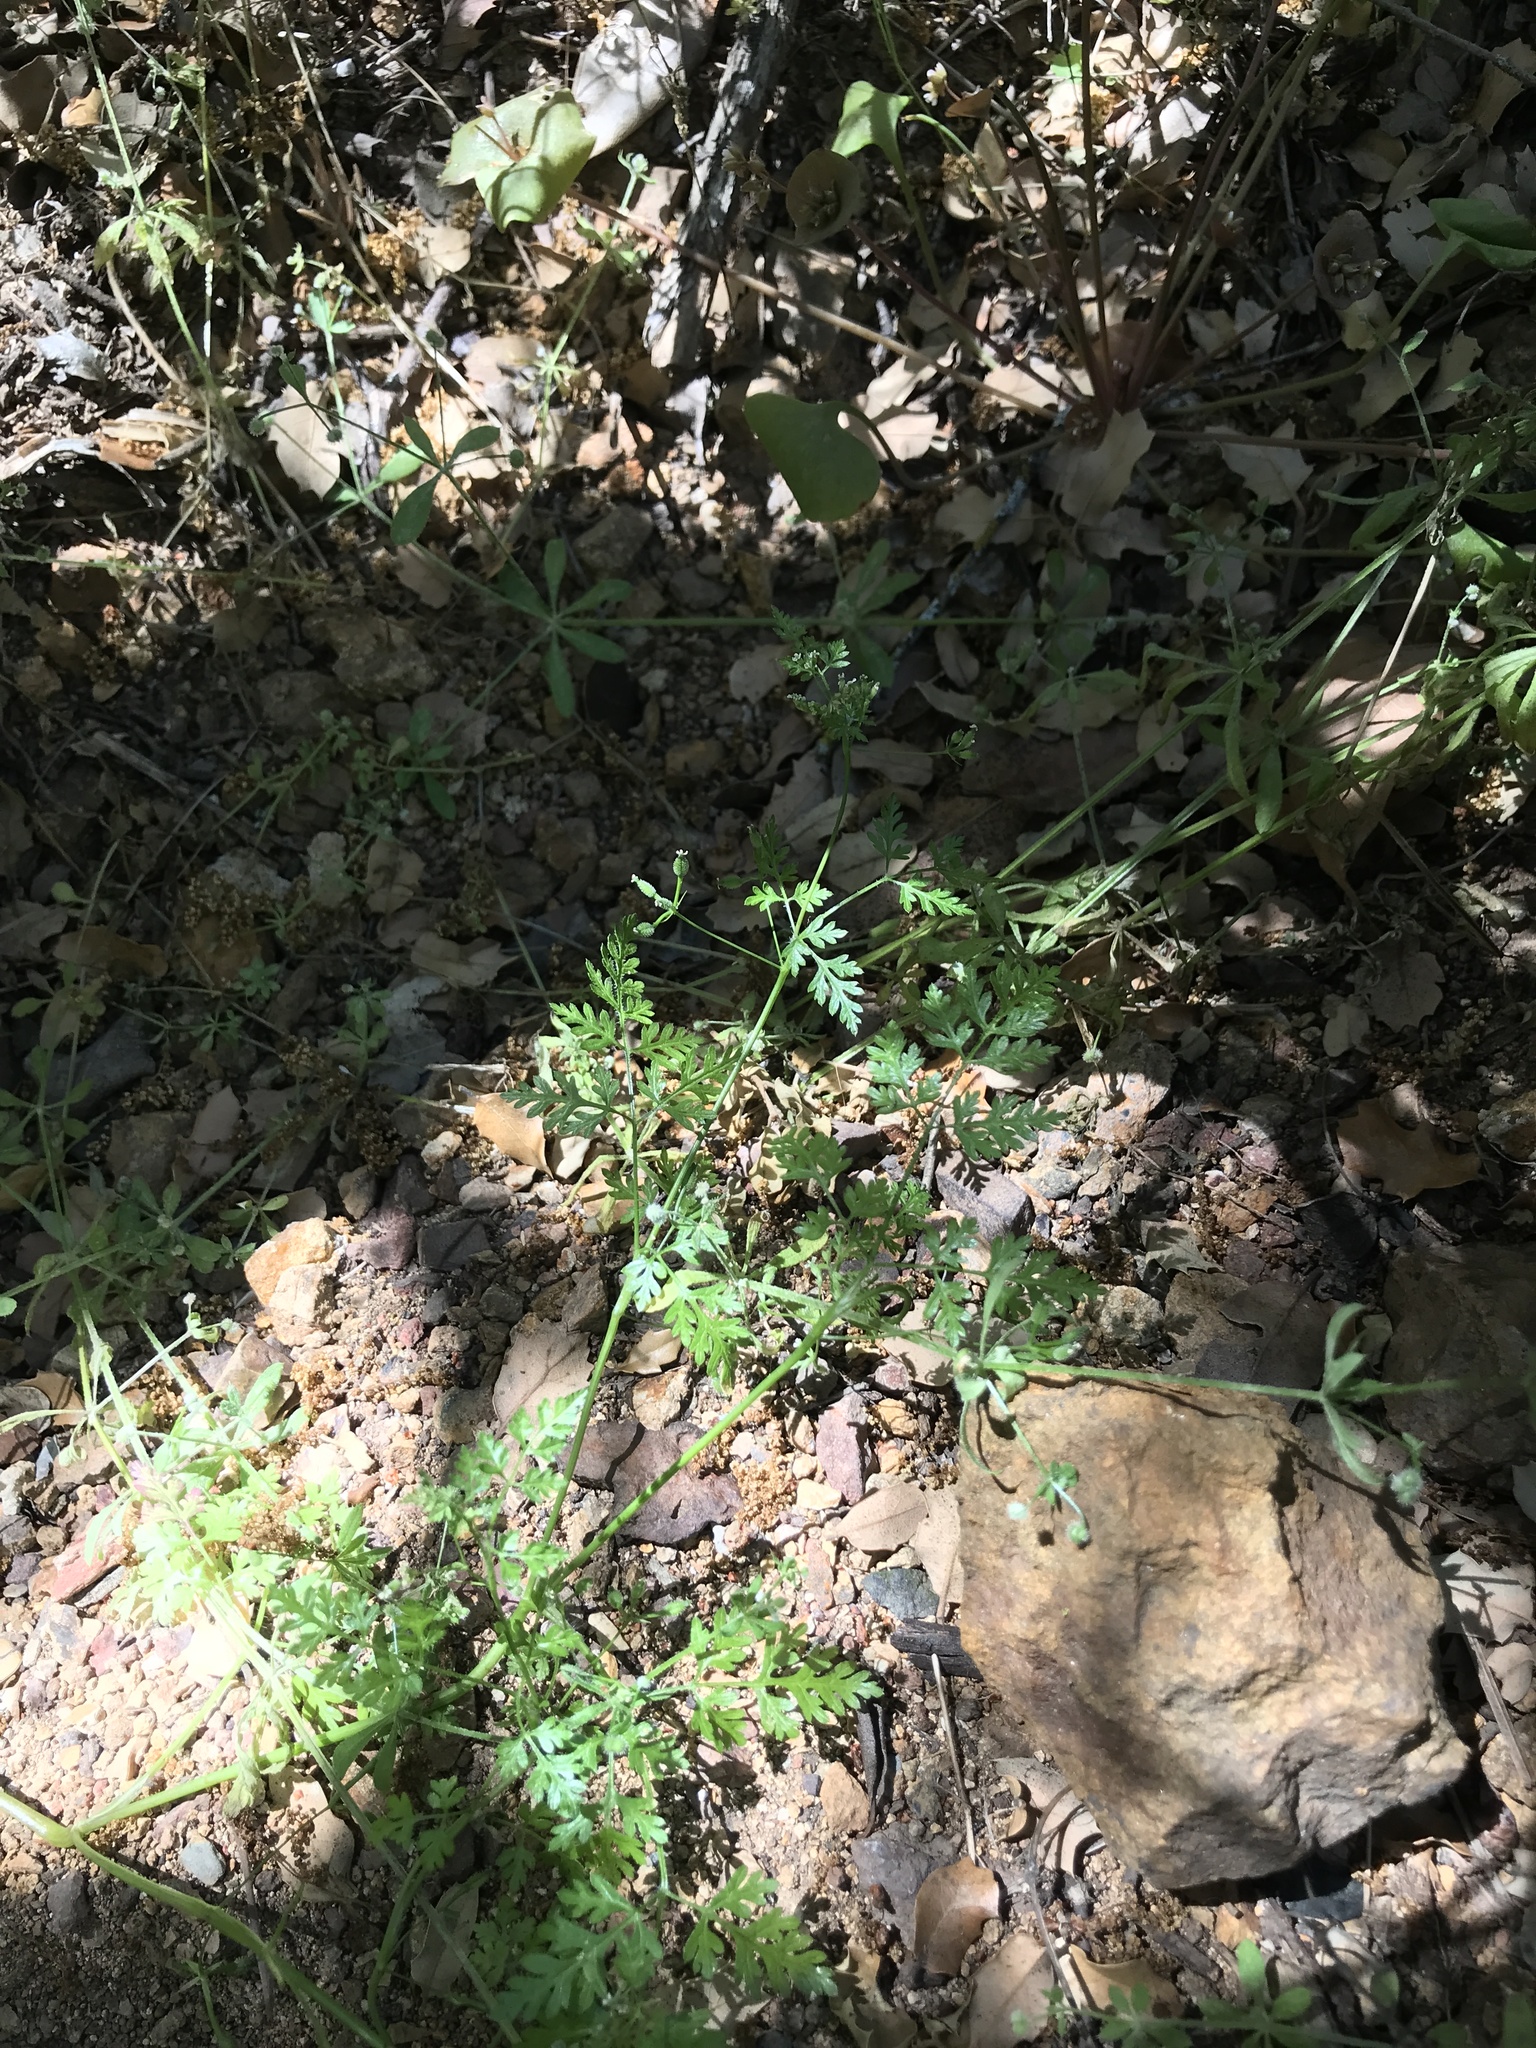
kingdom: Plantae
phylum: Tracheophyta
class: Magnoliopsida
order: Apiales
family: Apiaceae
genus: Anthriscus
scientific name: Anthriscus caucalis
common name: Bur chervil
